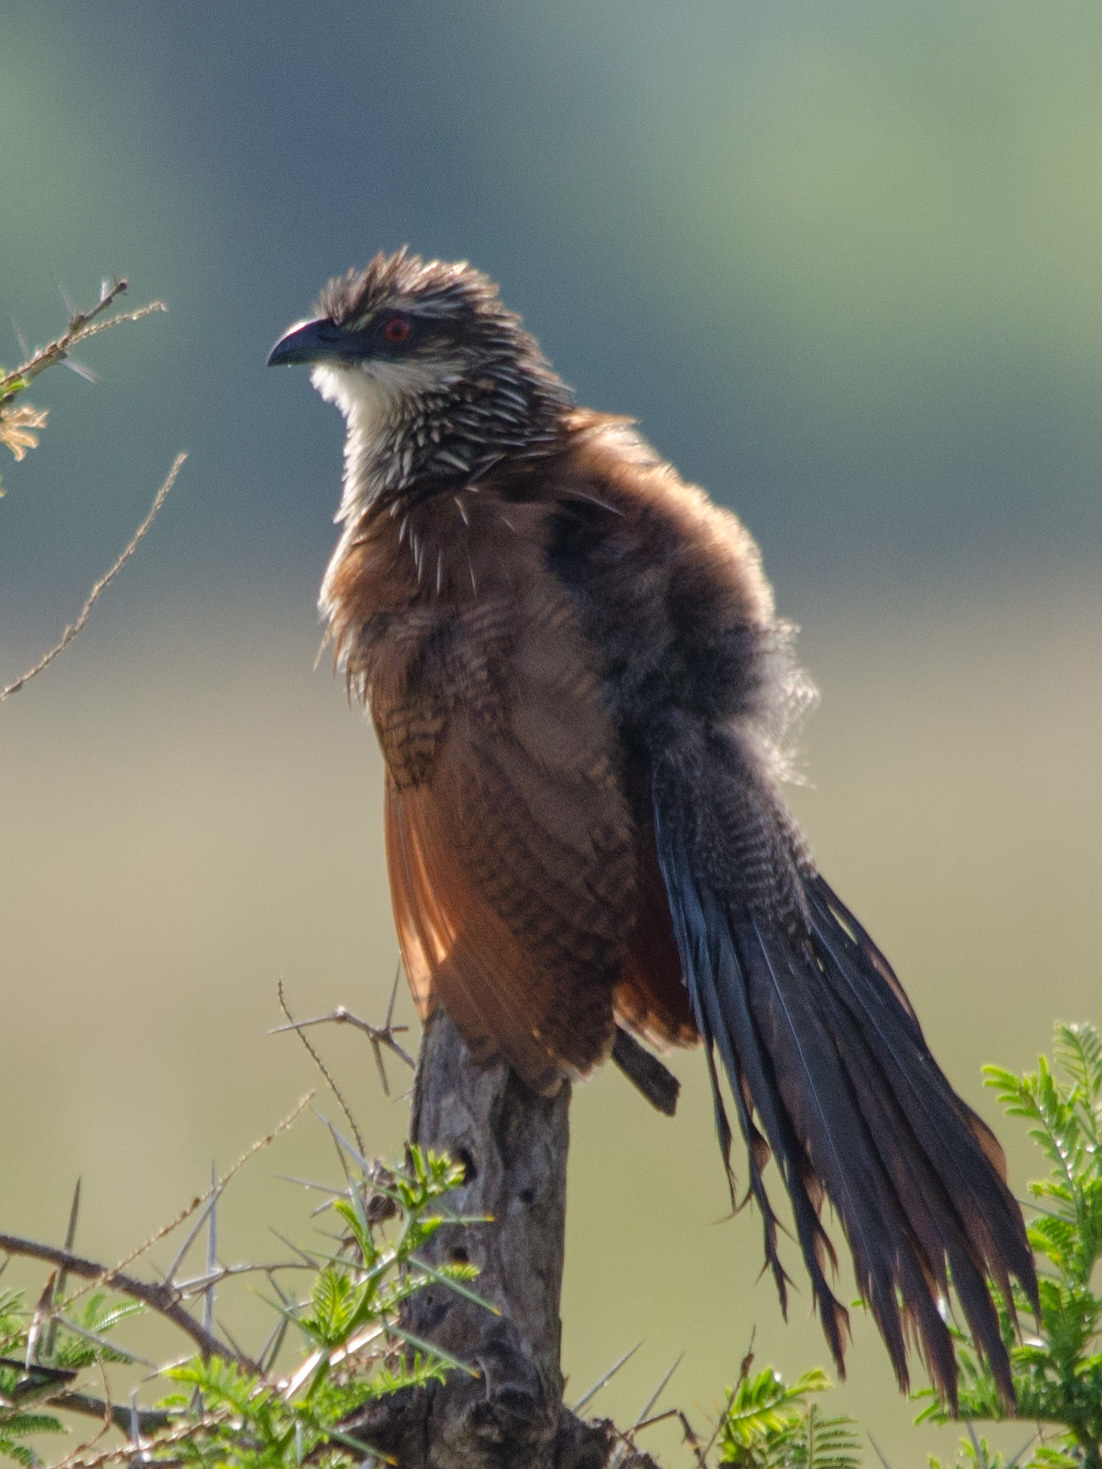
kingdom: Animalia
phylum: Chordata
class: Aves
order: Cuculiformes
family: Cuculidae
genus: Centropus
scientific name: Centropus superciliosus
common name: White-browed coucal
